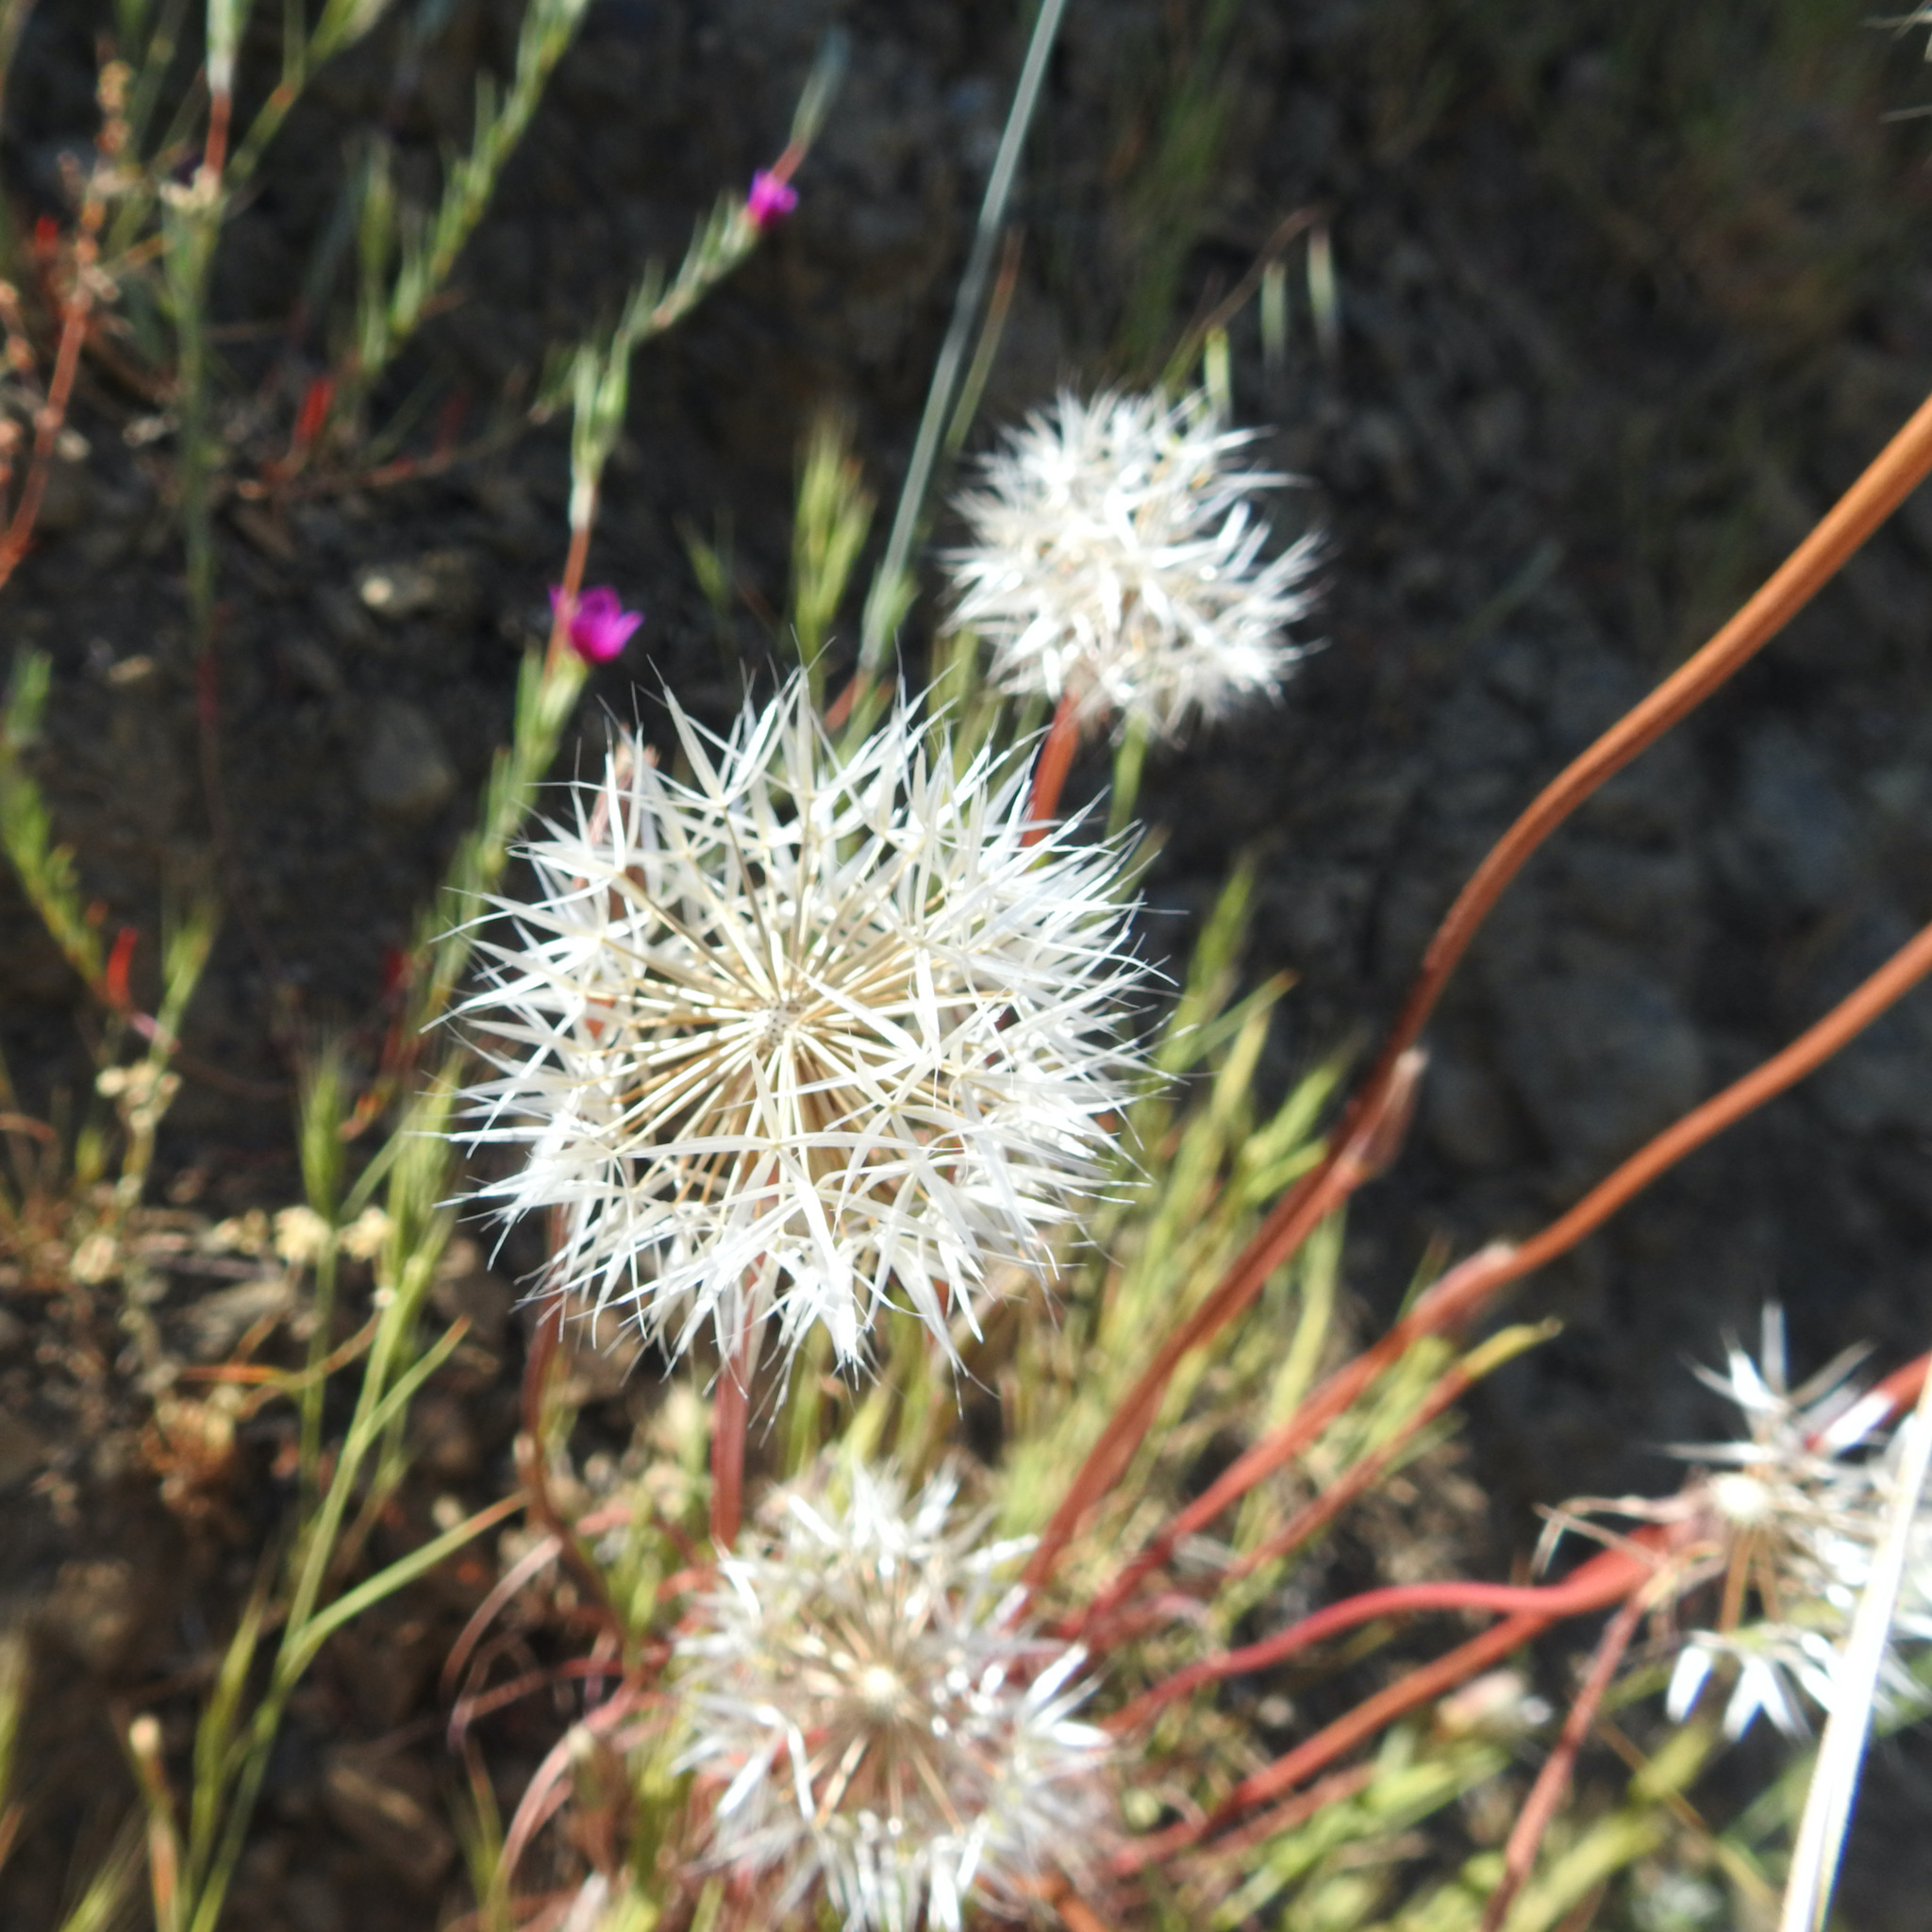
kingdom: Plantae
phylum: Tracheophyta
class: Magnoliopsida
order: Asterales
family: Asteraceae
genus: Microseris
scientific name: Microseris lindleyi
